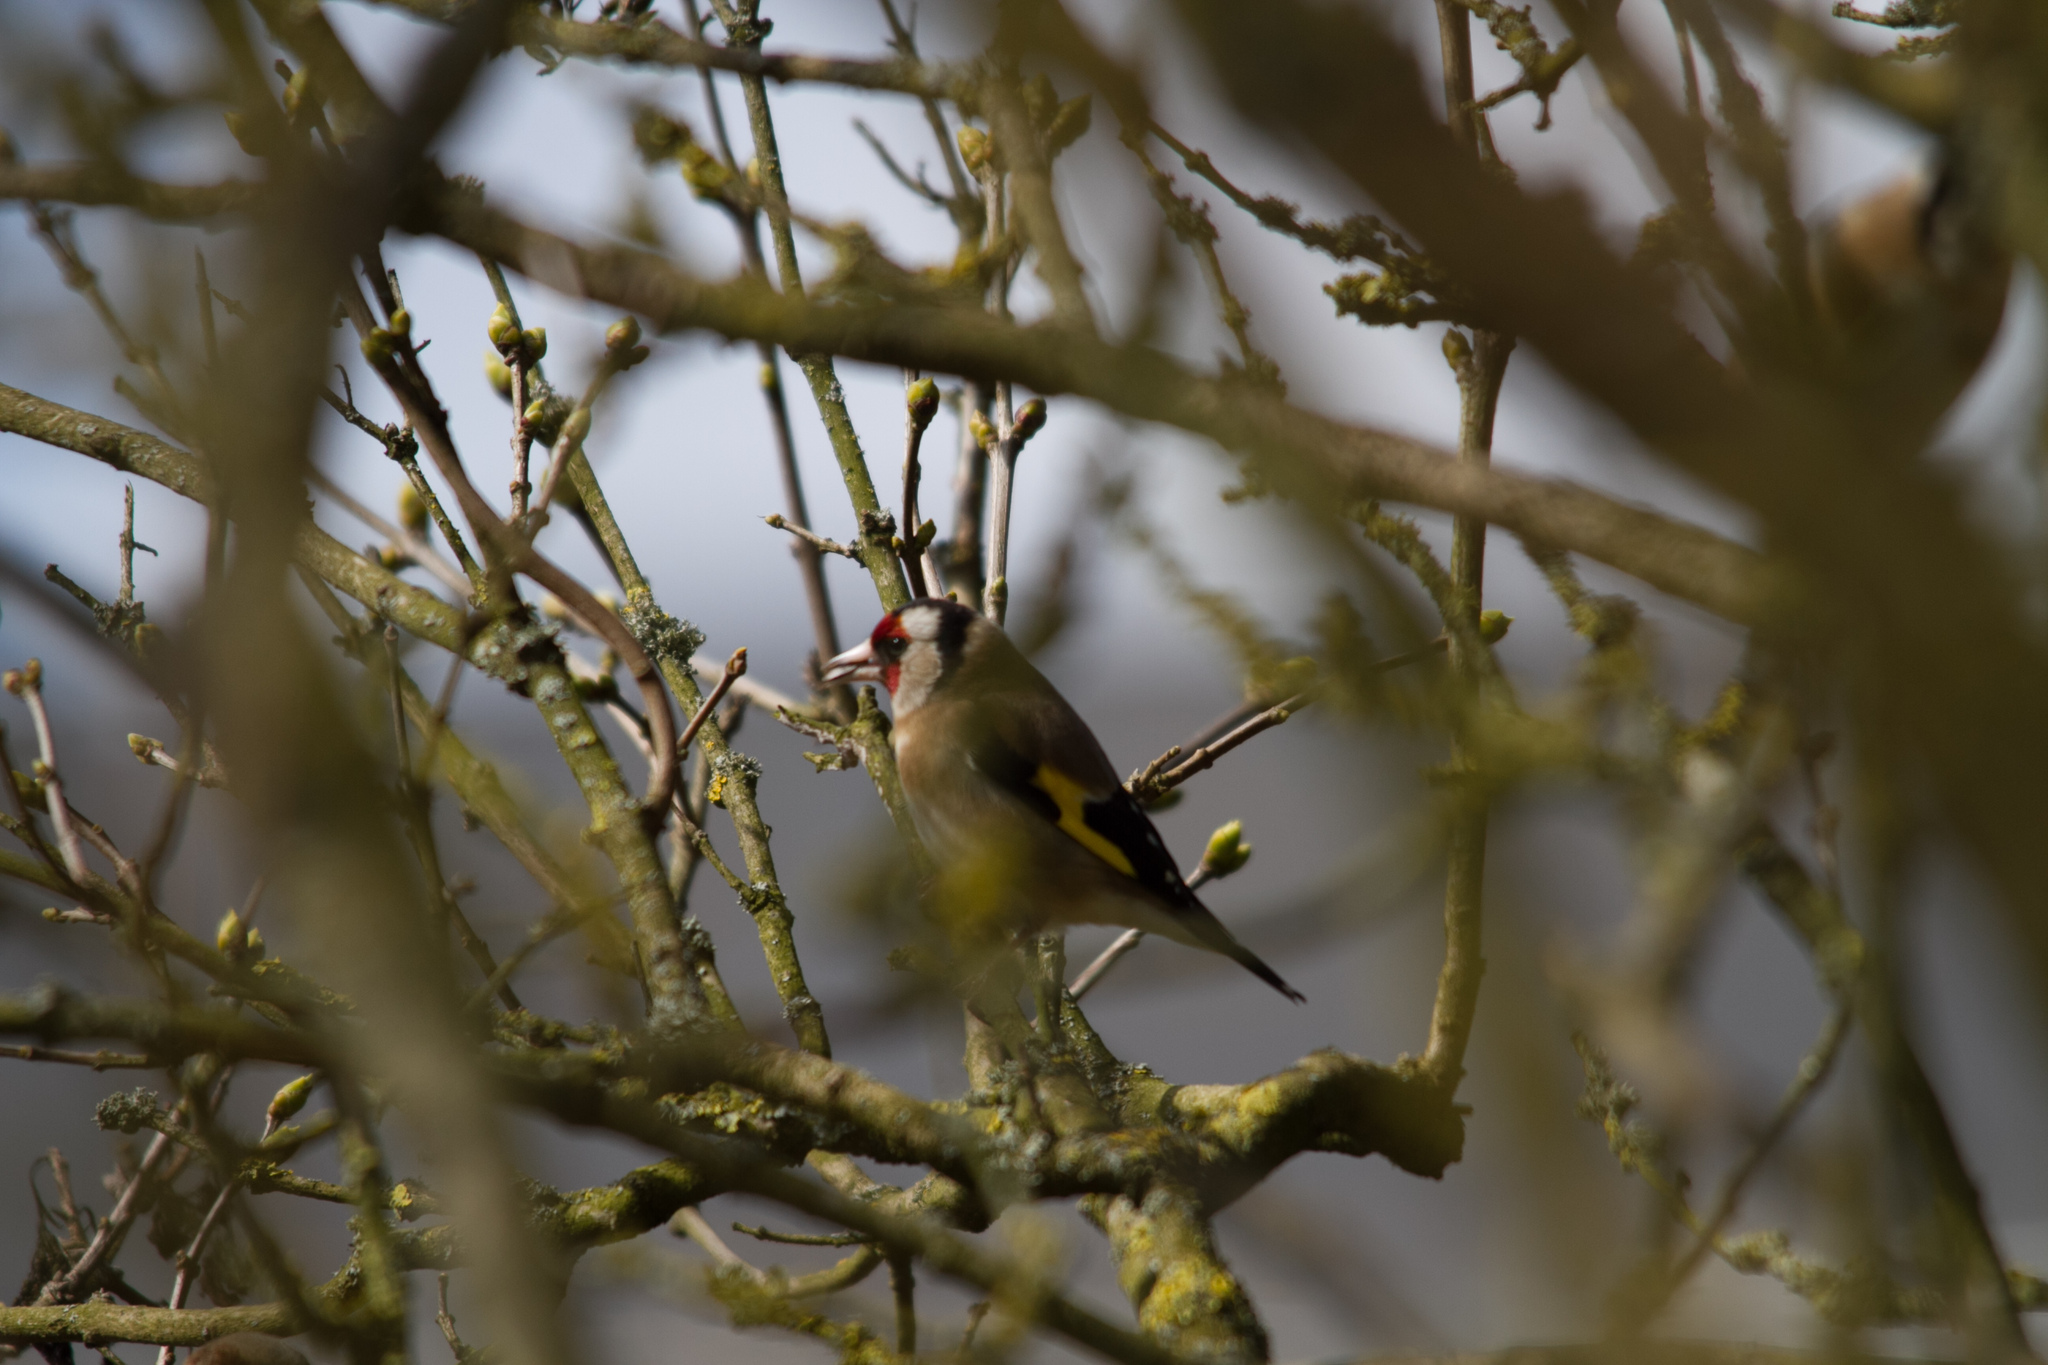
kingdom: Animalia
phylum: Chordata
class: Aves
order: Passeriformes
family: Fringillidae
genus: Carduelis
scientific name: Carduelis carduelis
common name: European goldfinch
